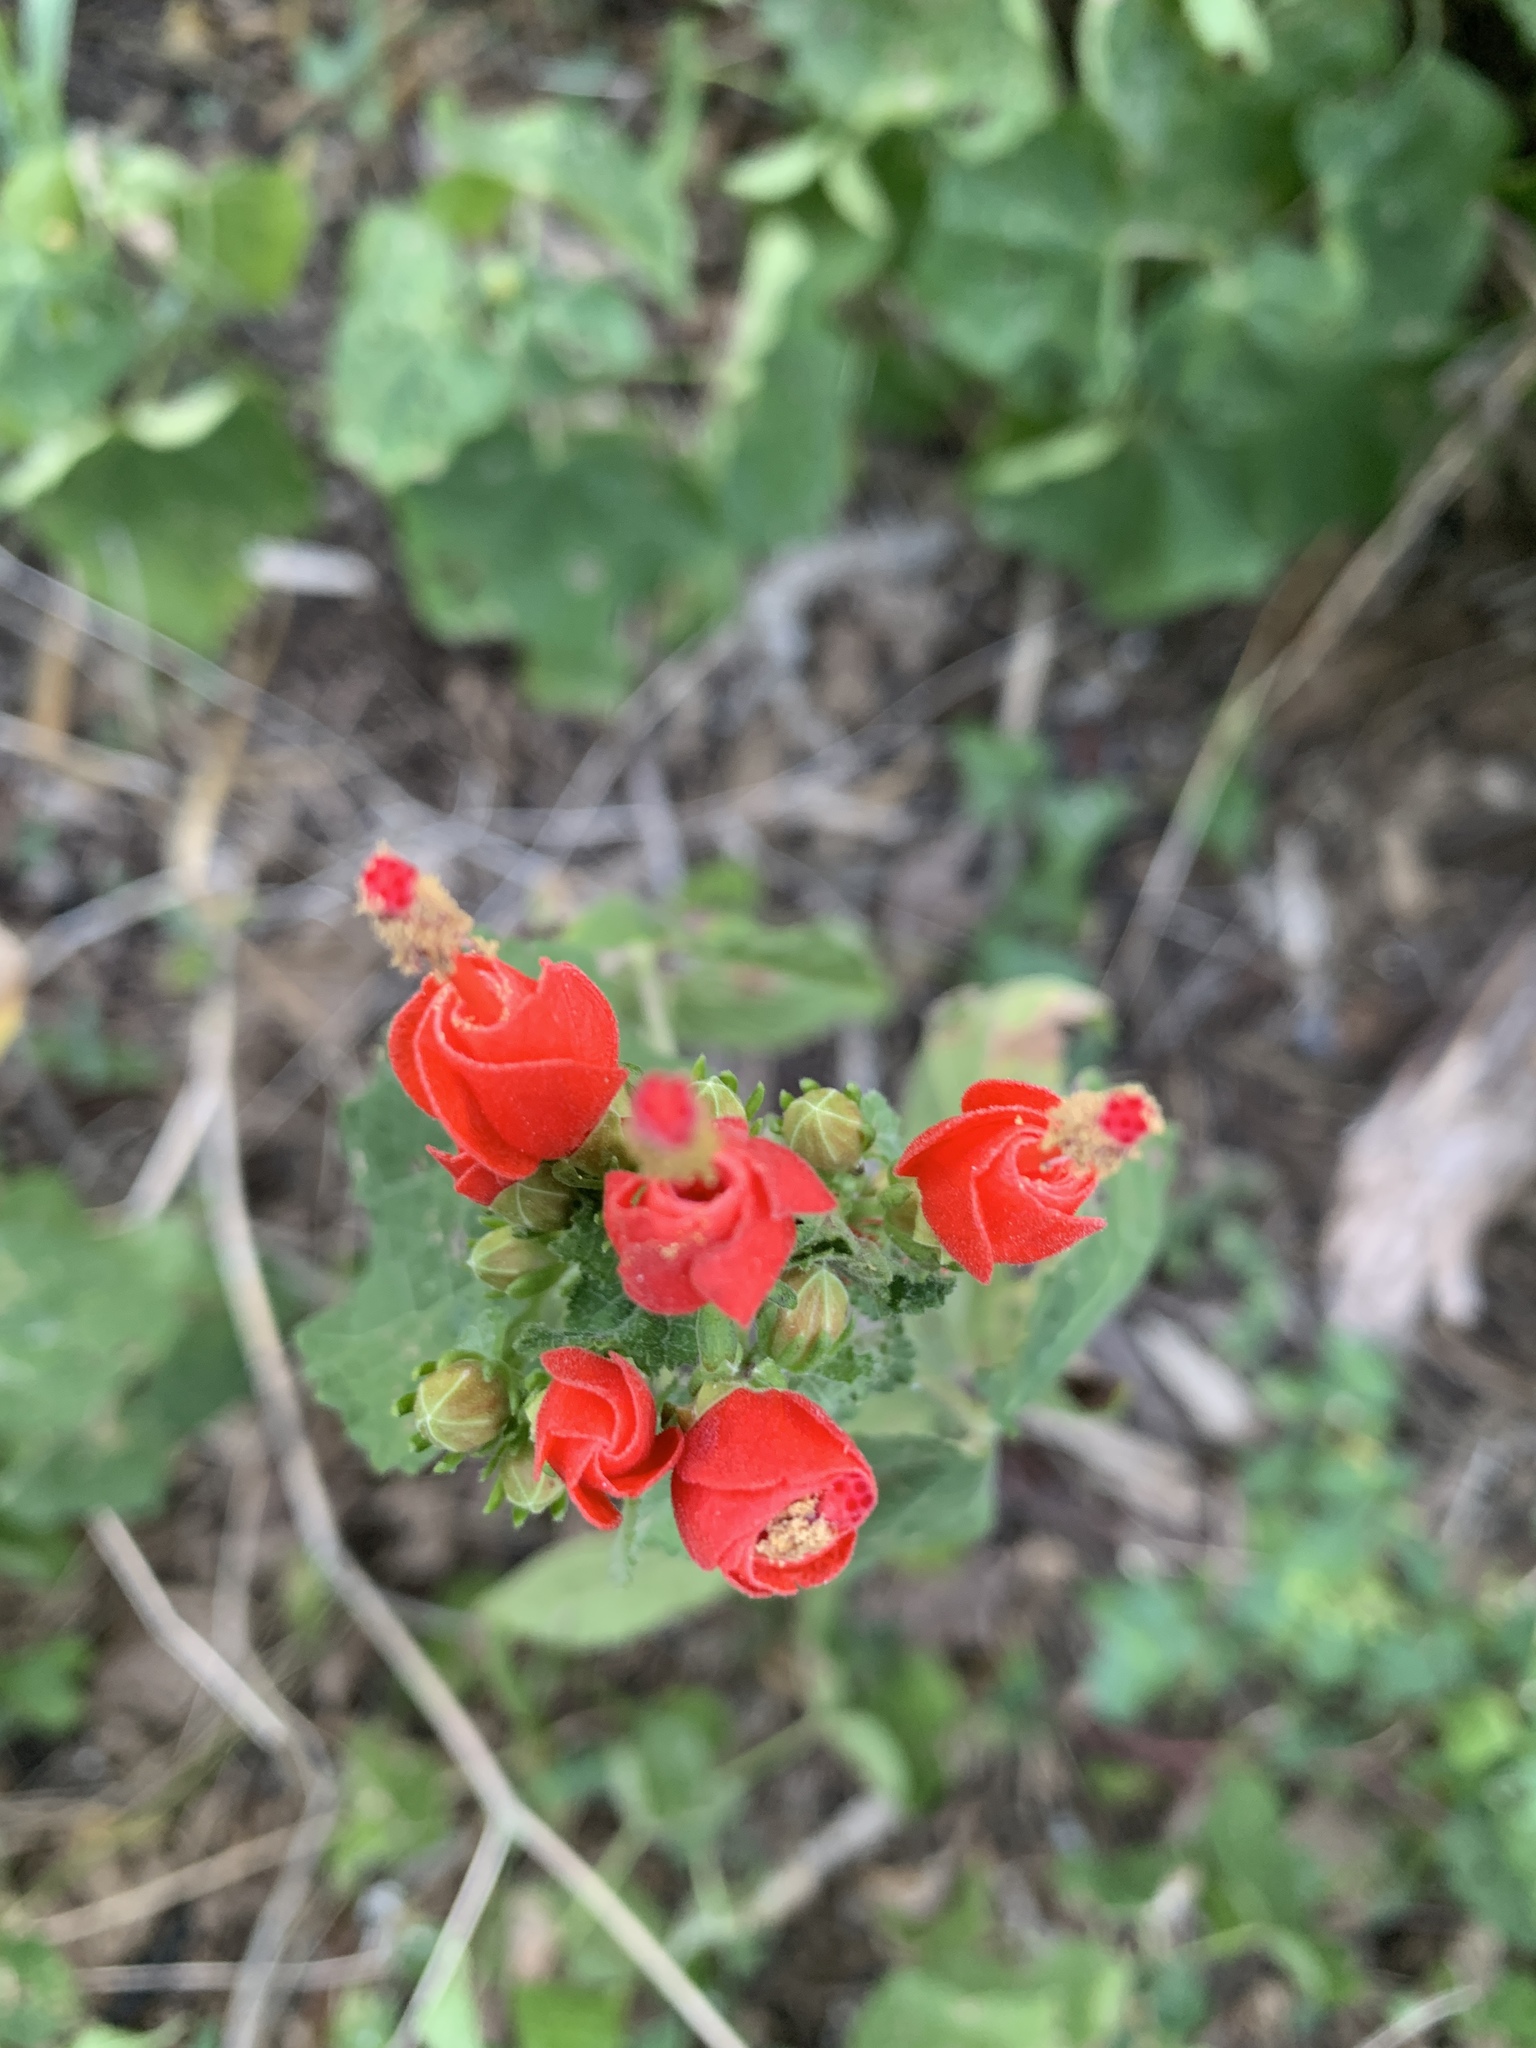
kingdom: Plantae
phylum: Tracheophyta
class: Magnoliopsida
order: Malvales
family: Malvaceae
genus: Malvaviscus
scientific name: Malvaviscus arboreus
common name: Wax mallow
